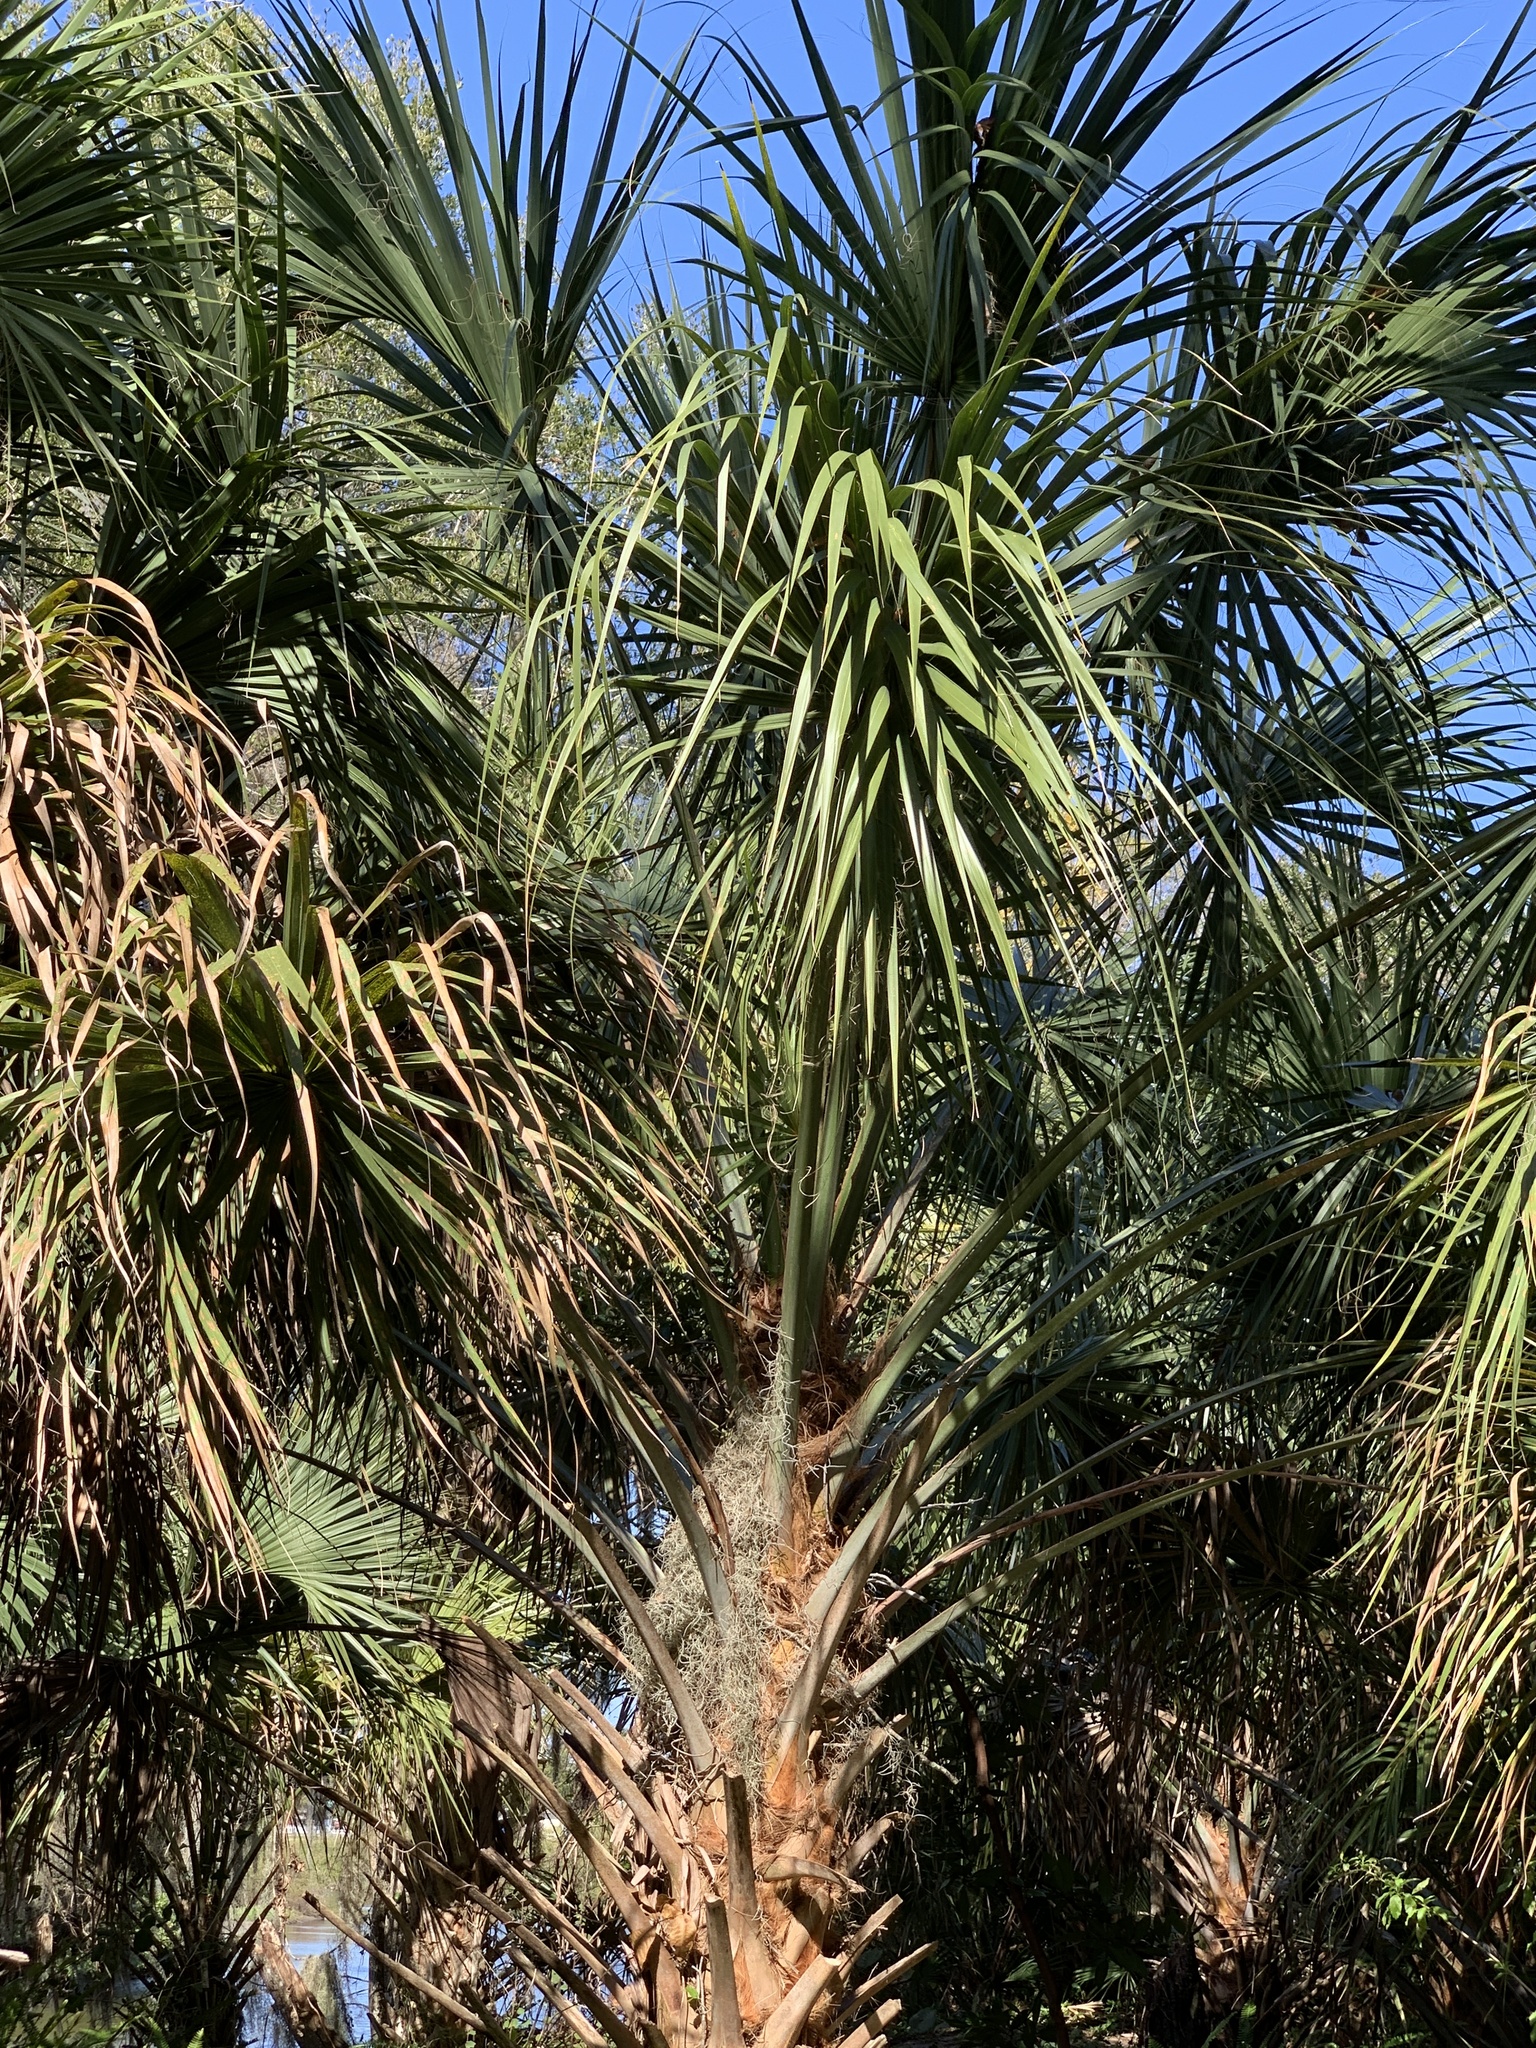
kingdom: Plantae
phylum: Tracheophyta
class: Liliopsida
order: Arecales
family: Arecaceae
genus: Sabal
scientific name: Sabal palmetto
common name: Blue palmetto
